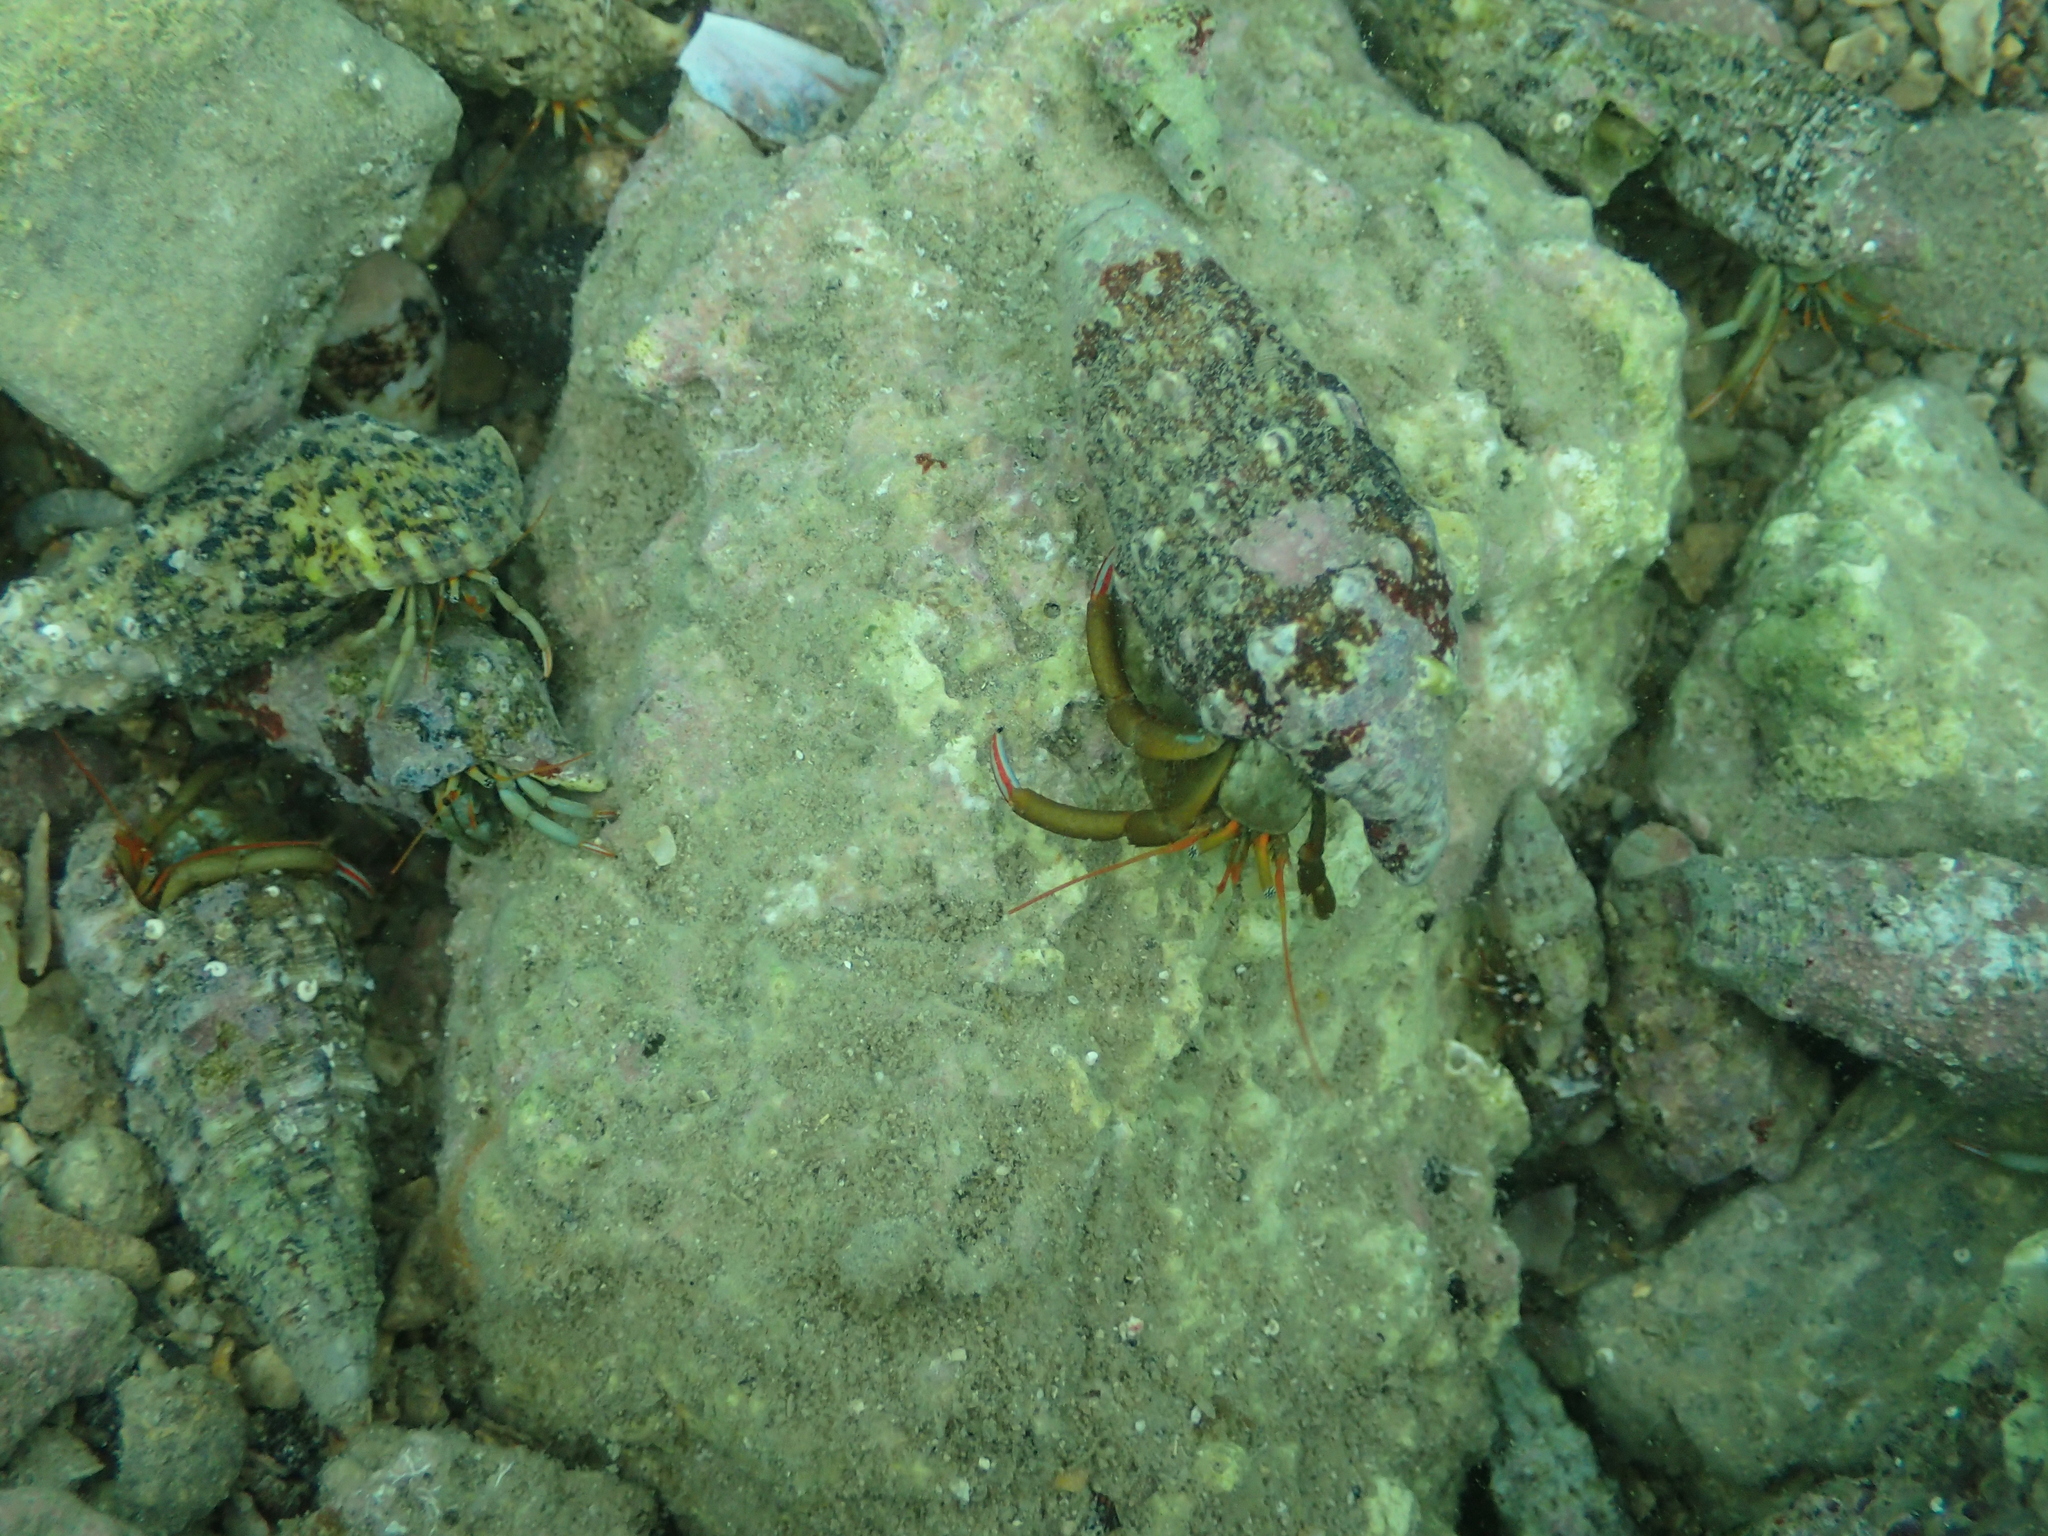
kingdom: Animalia
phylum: Arthropoda
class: Malacostraca
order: Decapoda
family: Diogenidae
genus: Clibanarius
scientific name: Clibanarius erythropus
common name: Hermit crab
